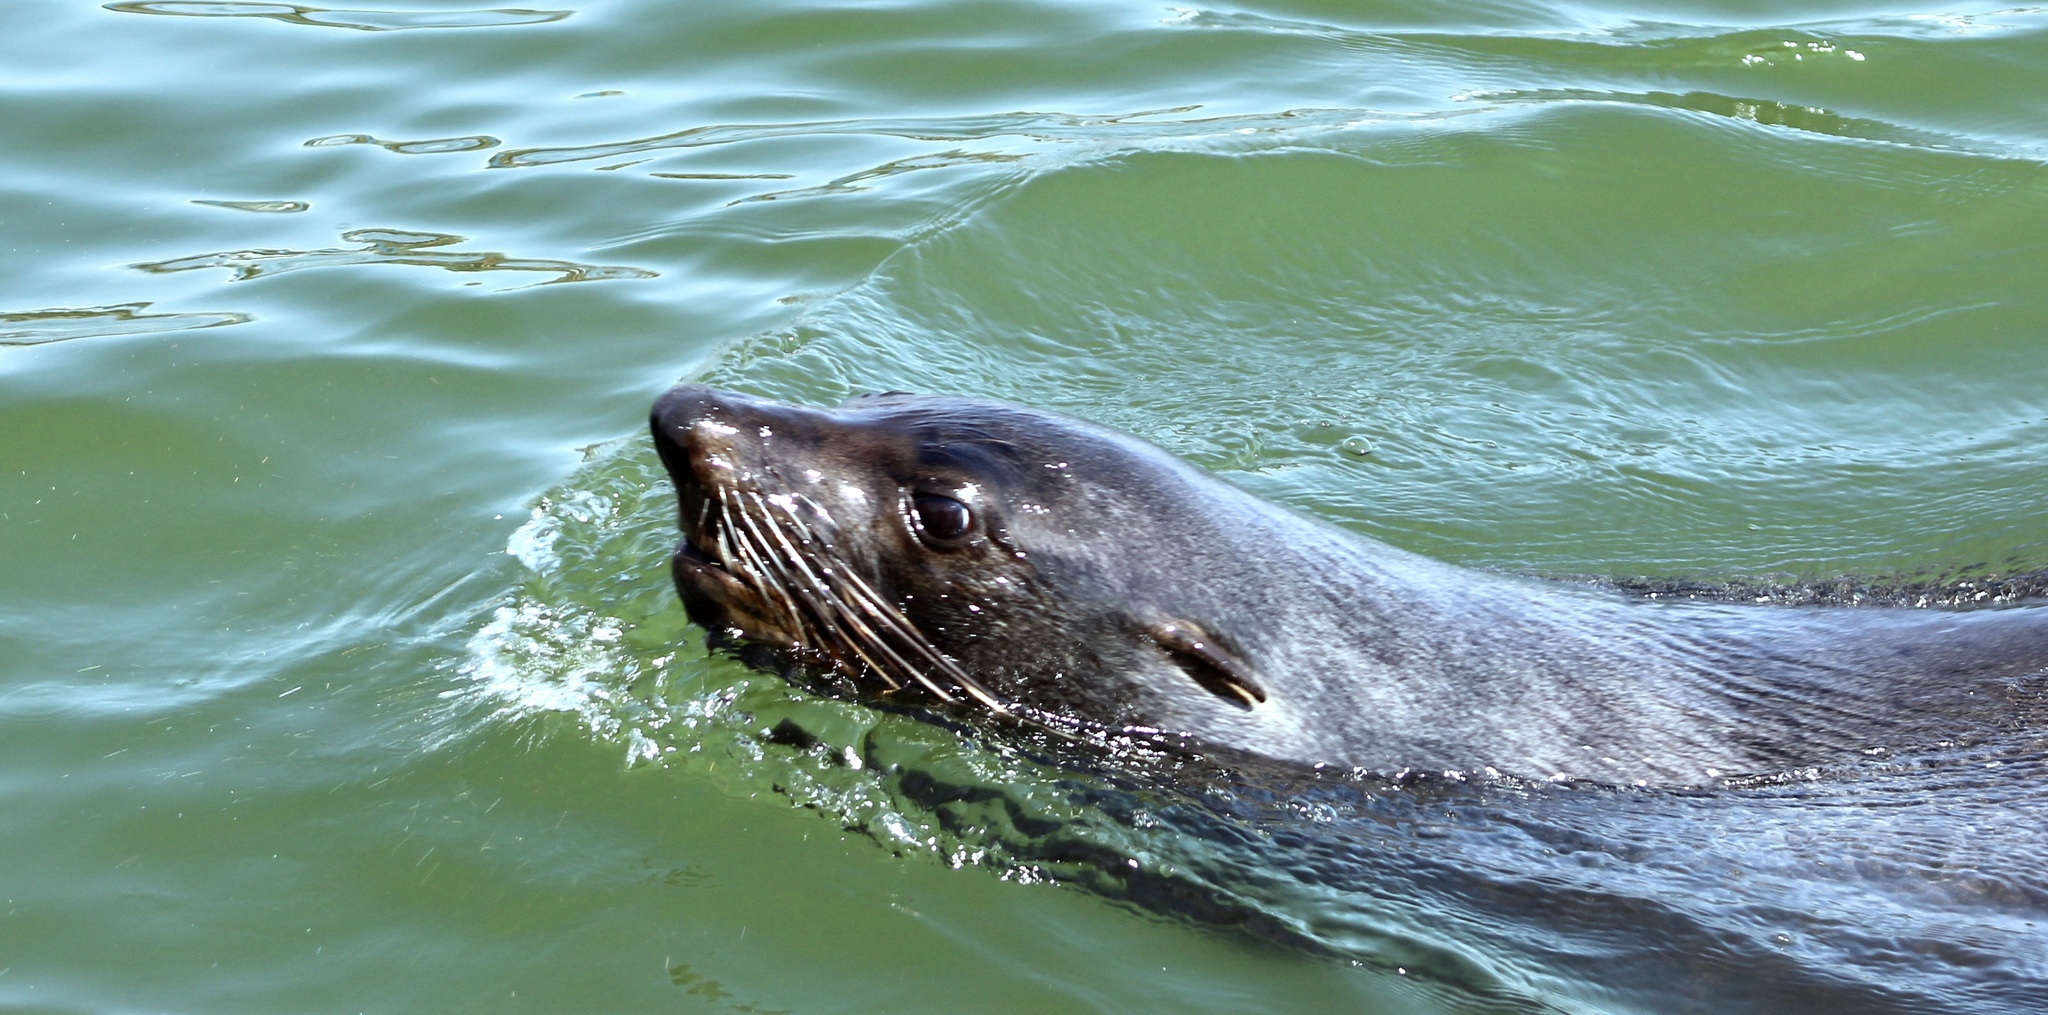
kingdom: Animalia
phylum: Chordata
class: Mammalia
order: Carnivora
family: Otariidae
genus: Arctocephalus
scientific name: Arctocephalus pusillus
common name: Brown fur seal
